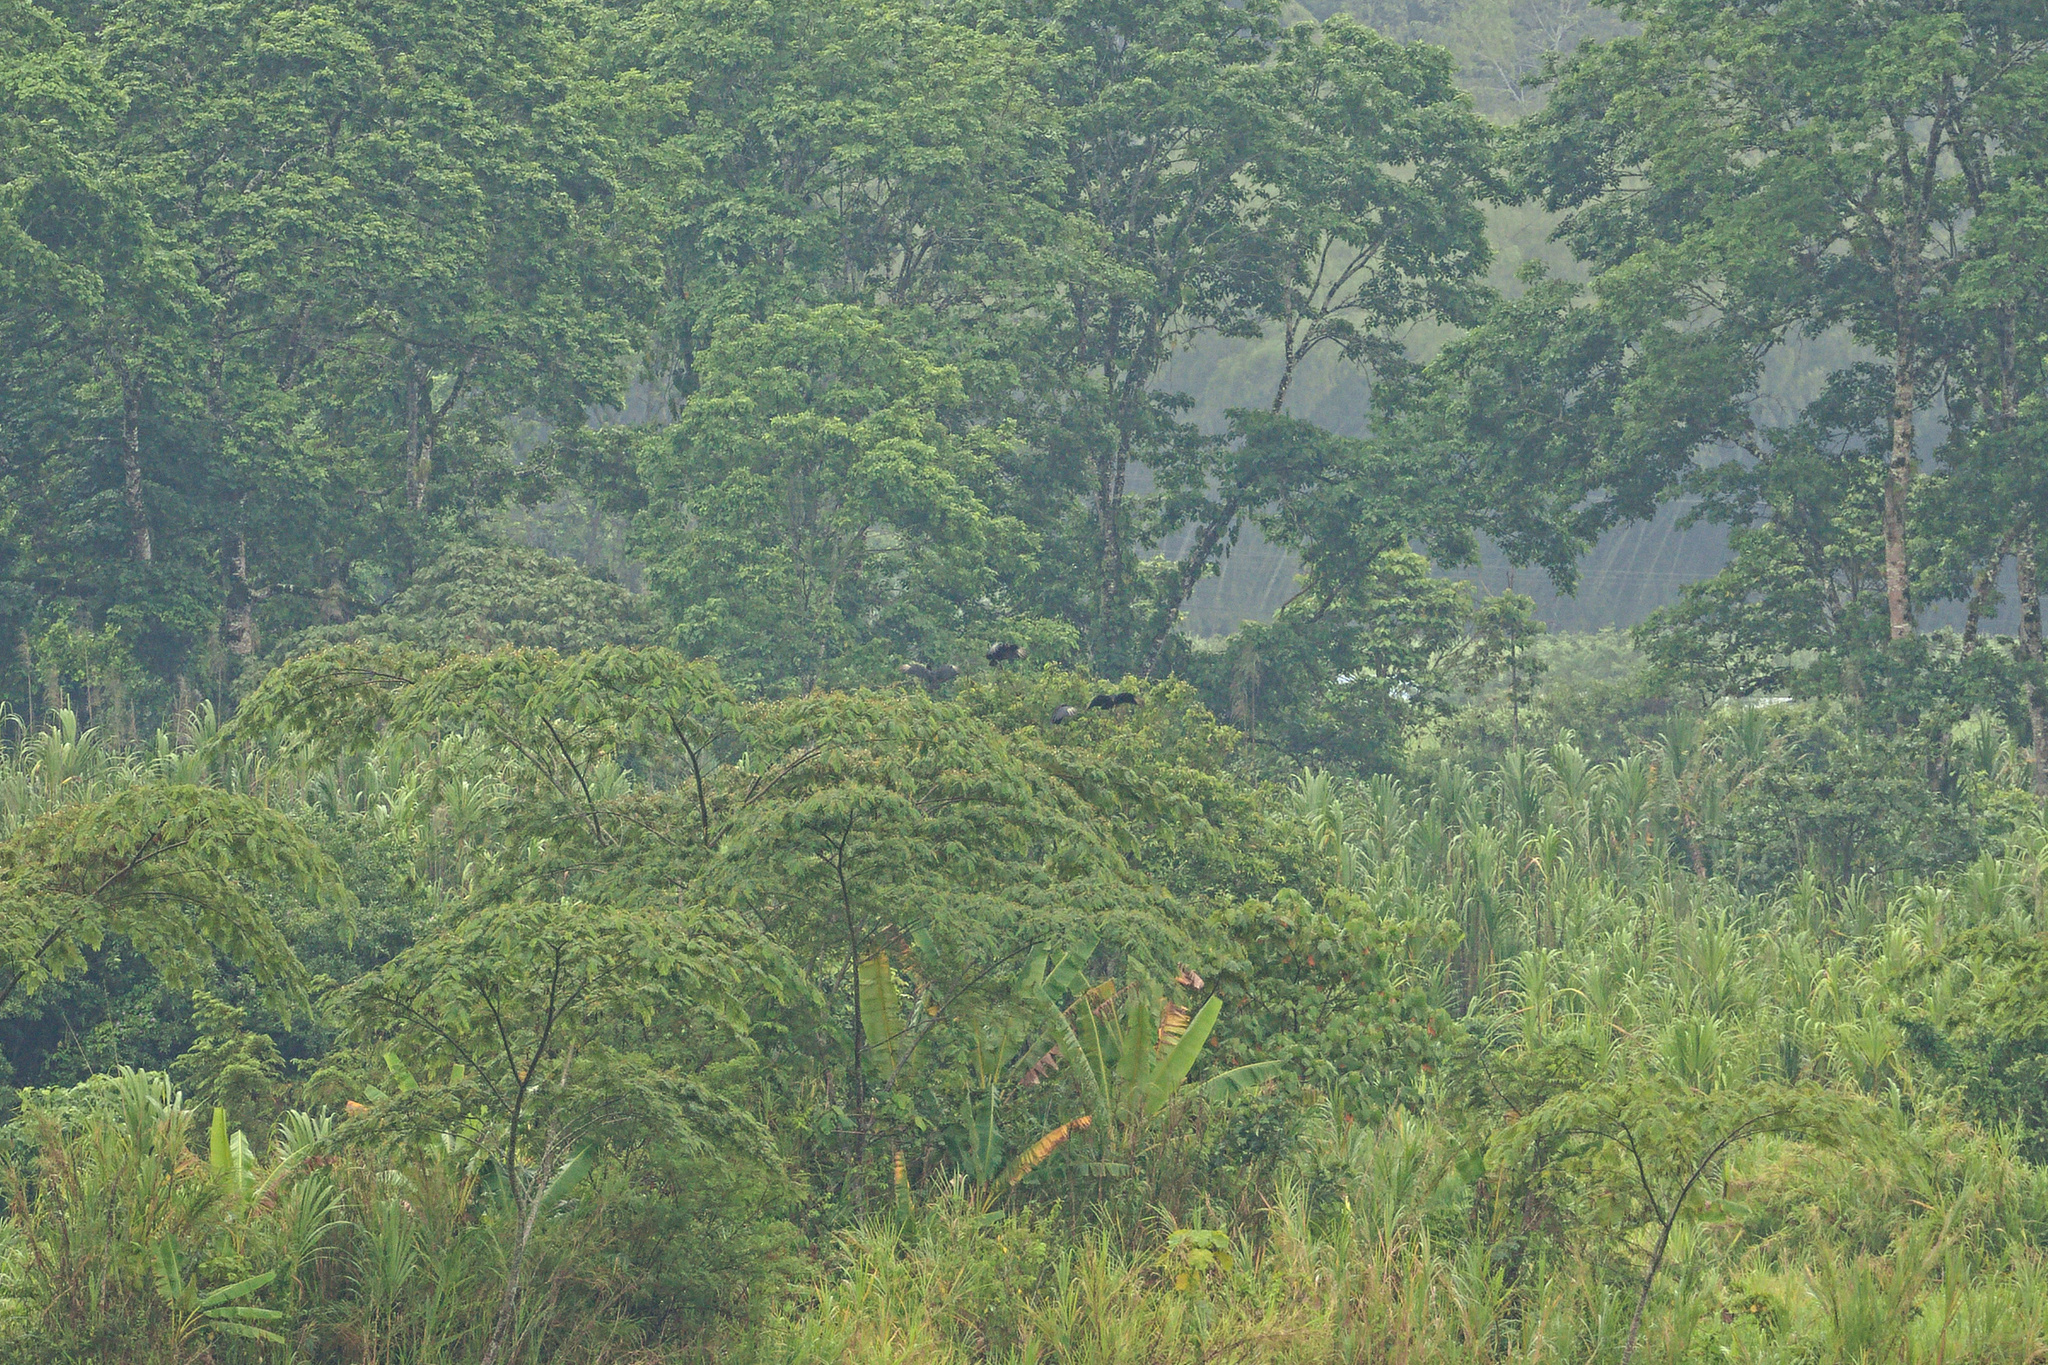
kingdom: Animalia
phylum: Chordata
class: Aves
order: Accipitriformes
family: Cathartidae
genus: Coragyps
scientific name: Coragyps atratus
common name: Black vulture
